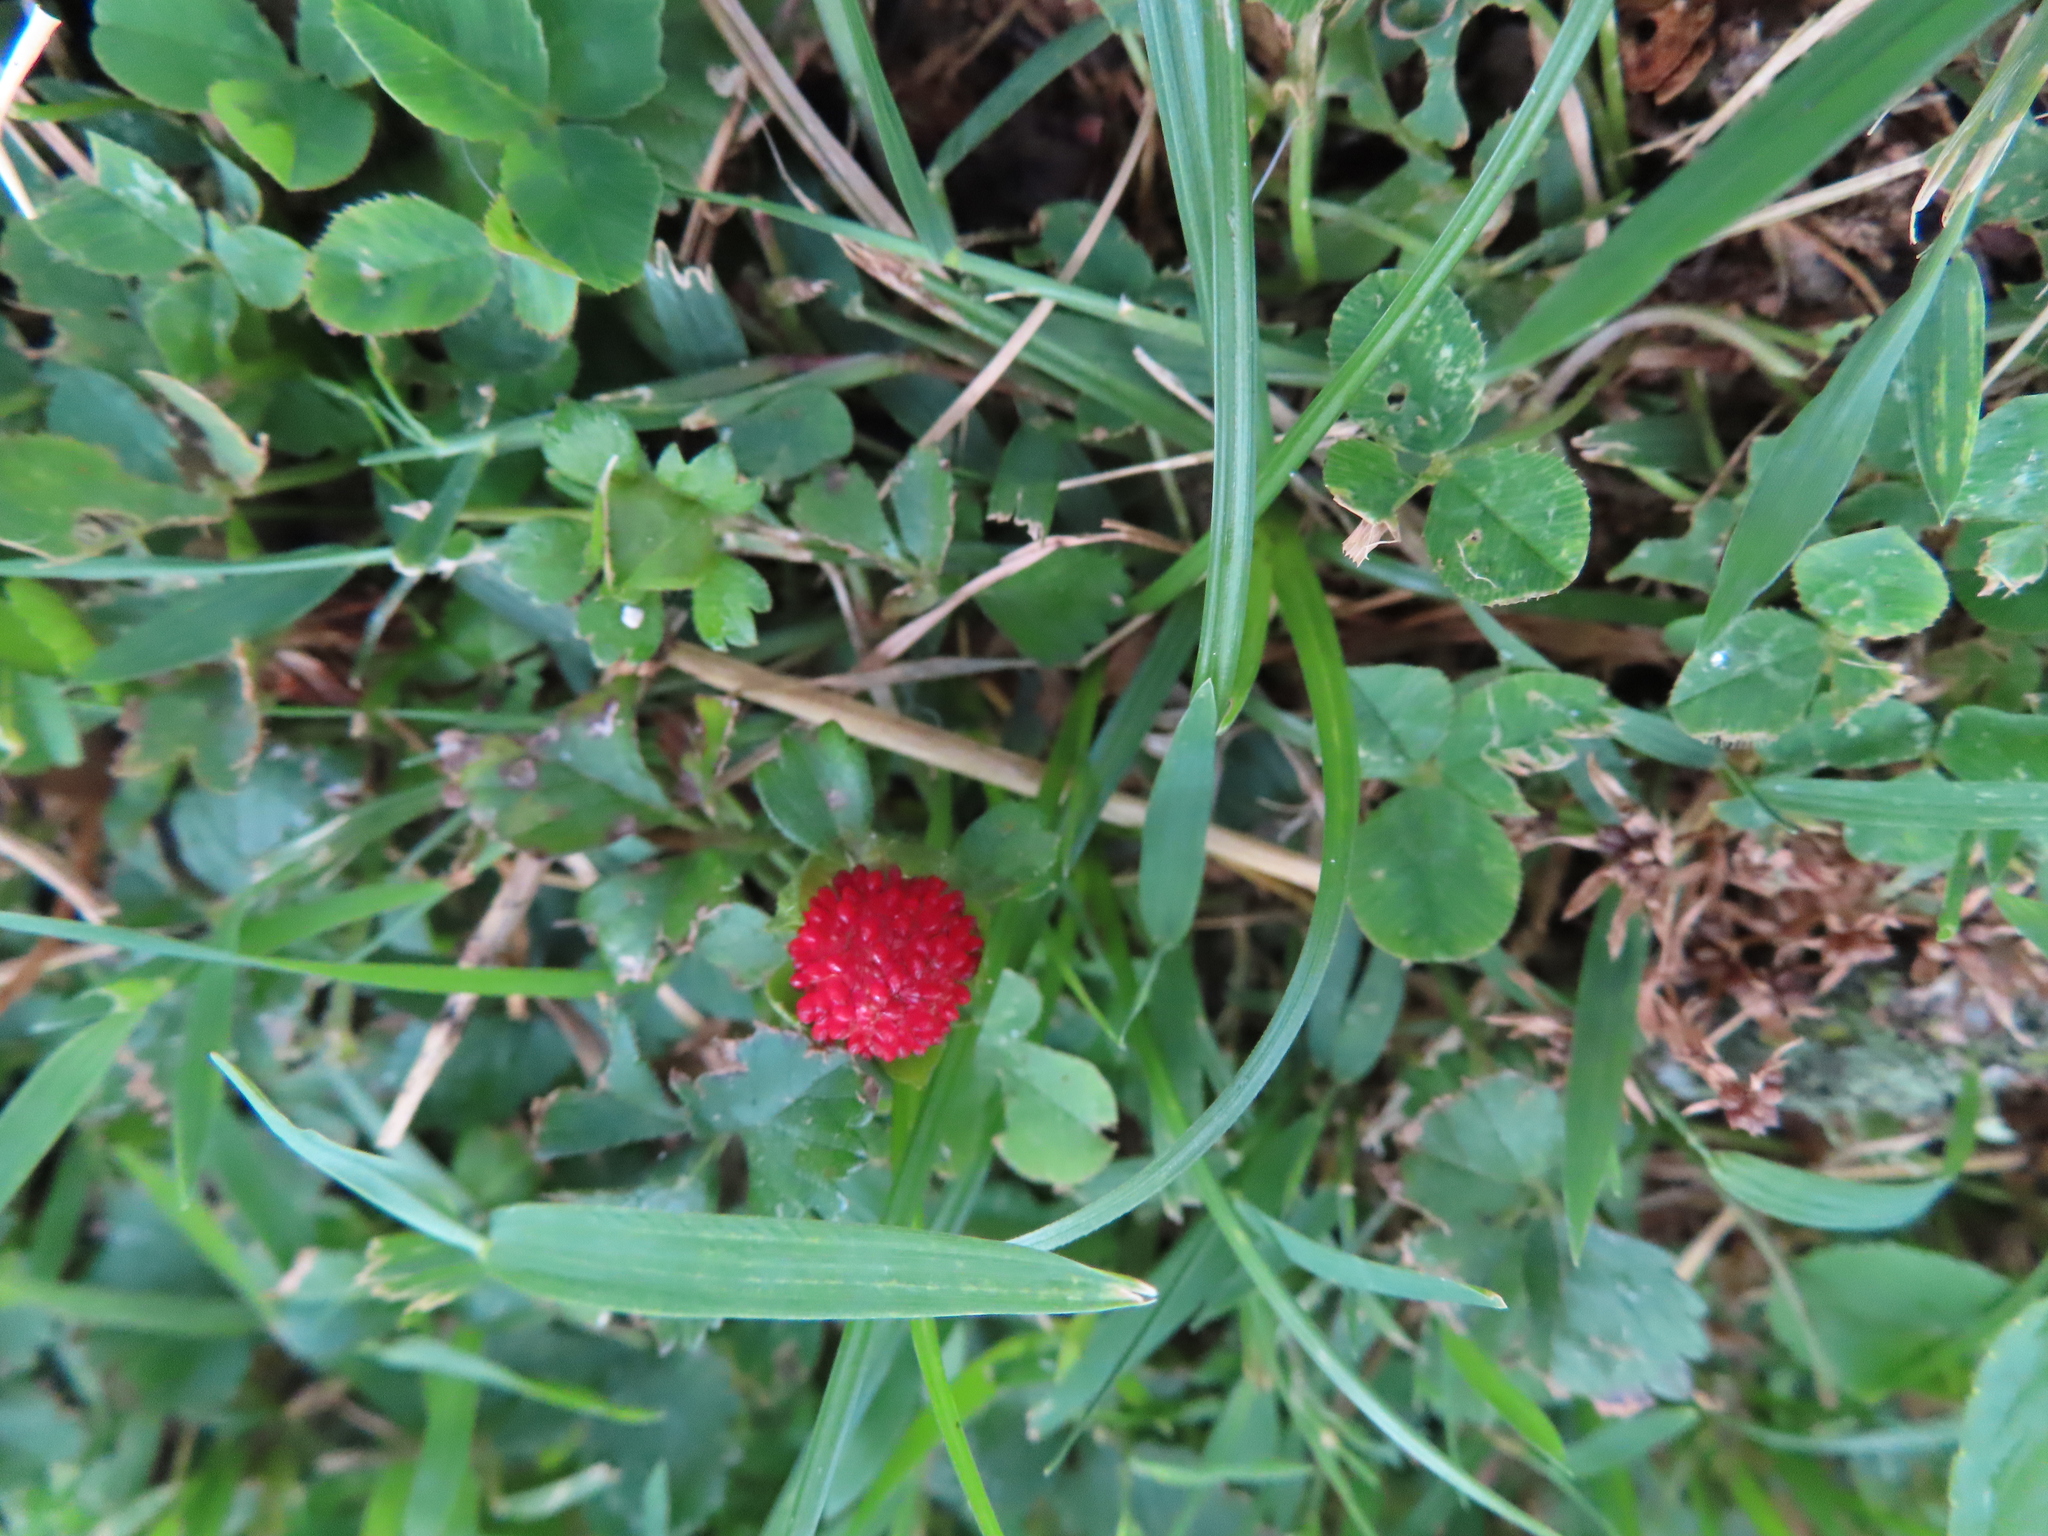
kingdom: Plantae
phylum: Tracheophyta
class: Magnoliopsida
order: Rosales
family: Rosaceae
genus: Potentilla
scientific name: Potentilla indica
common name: Yellow-flowered strawberry
